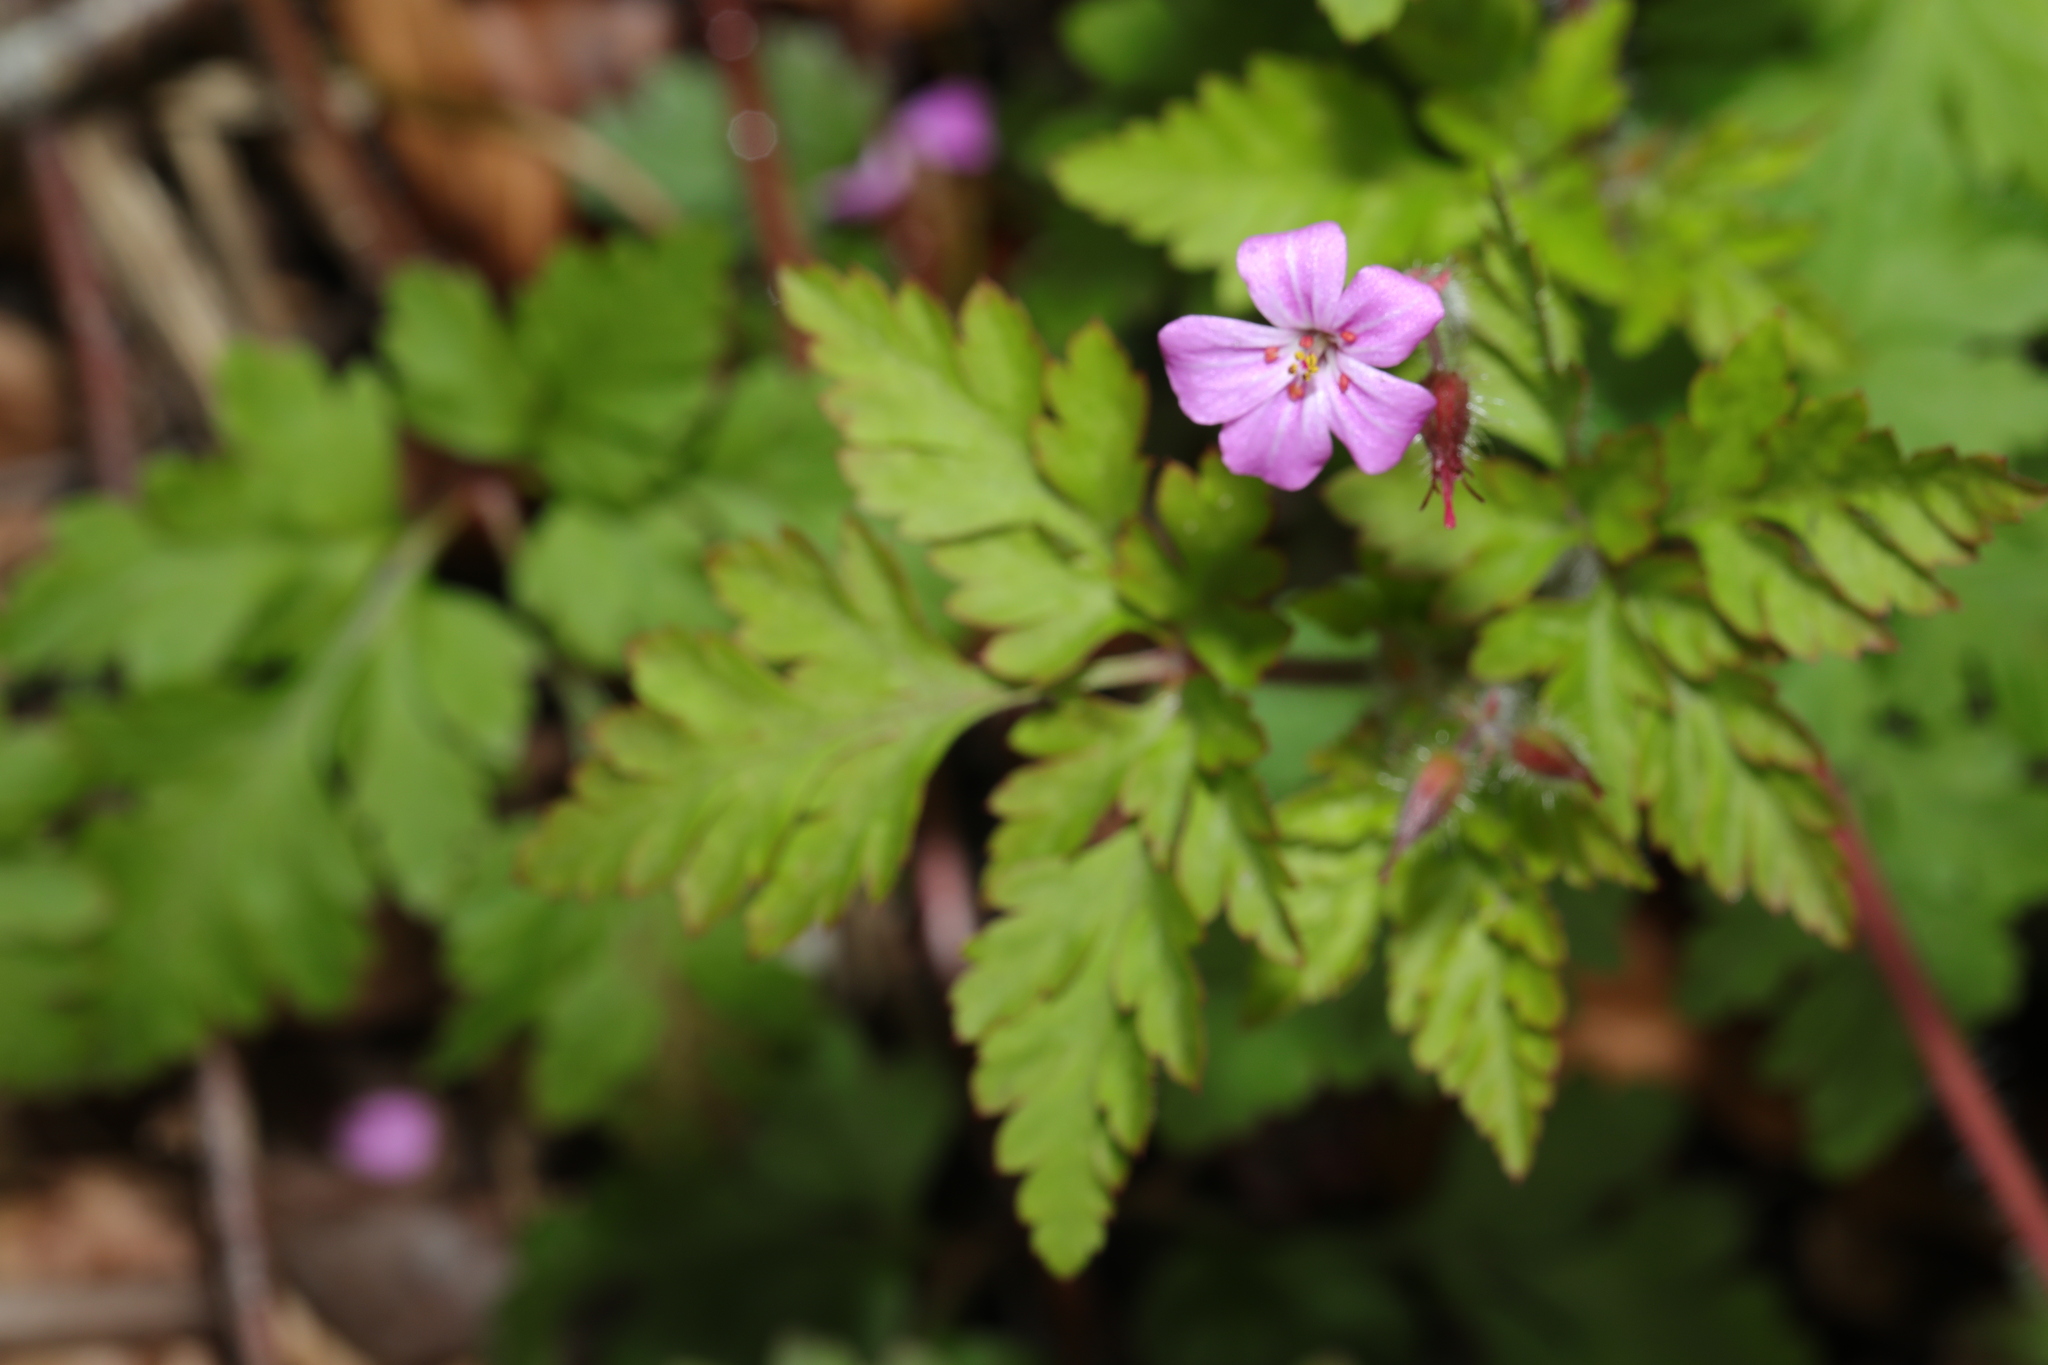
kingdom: Plantae
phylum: Tracheophyta
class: Magnoliopsida
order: Geraniales
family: Geraniaceae
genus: Geranium
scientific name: Geranium robertianum
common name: Herb-robert
